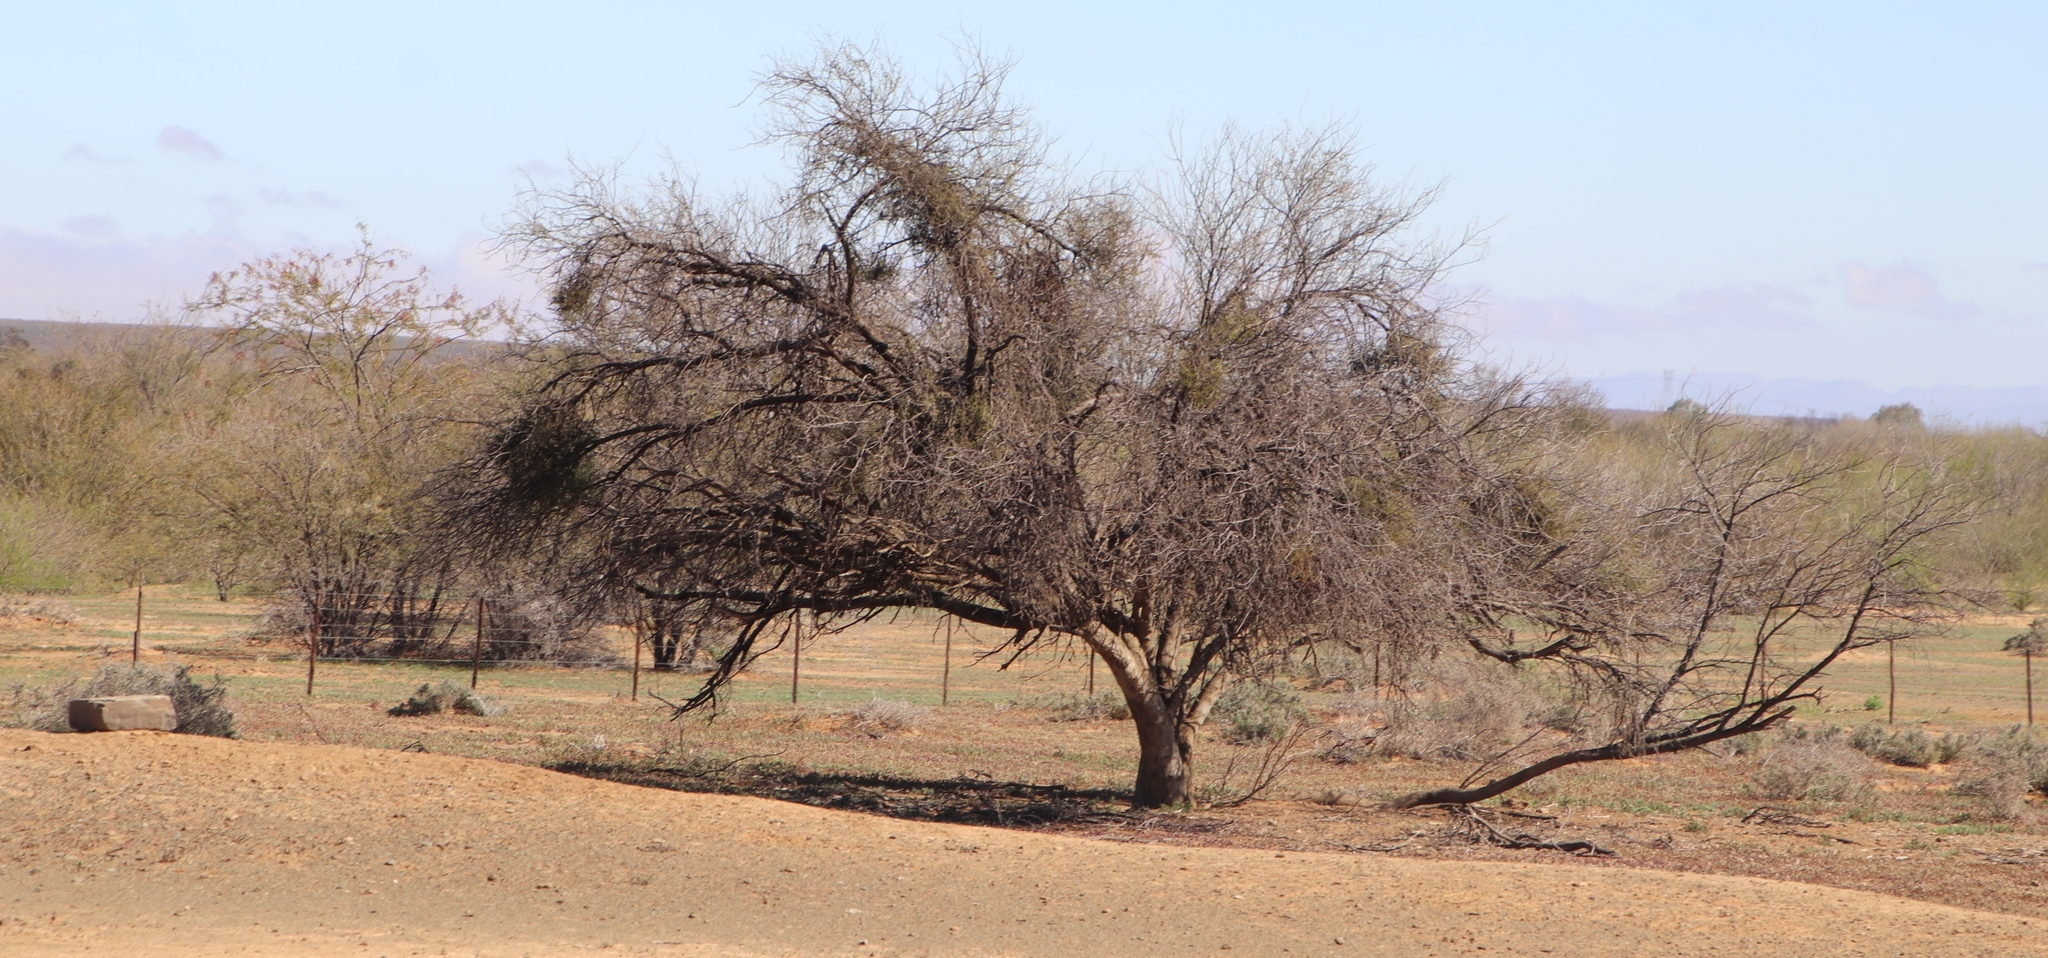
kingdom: Plantae
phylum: Tracheophyta
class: Magnoliopsida
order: Fabales
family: Fabaceae
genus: Prosopis
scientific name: Prosopis pubescens
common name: Screw-bean
